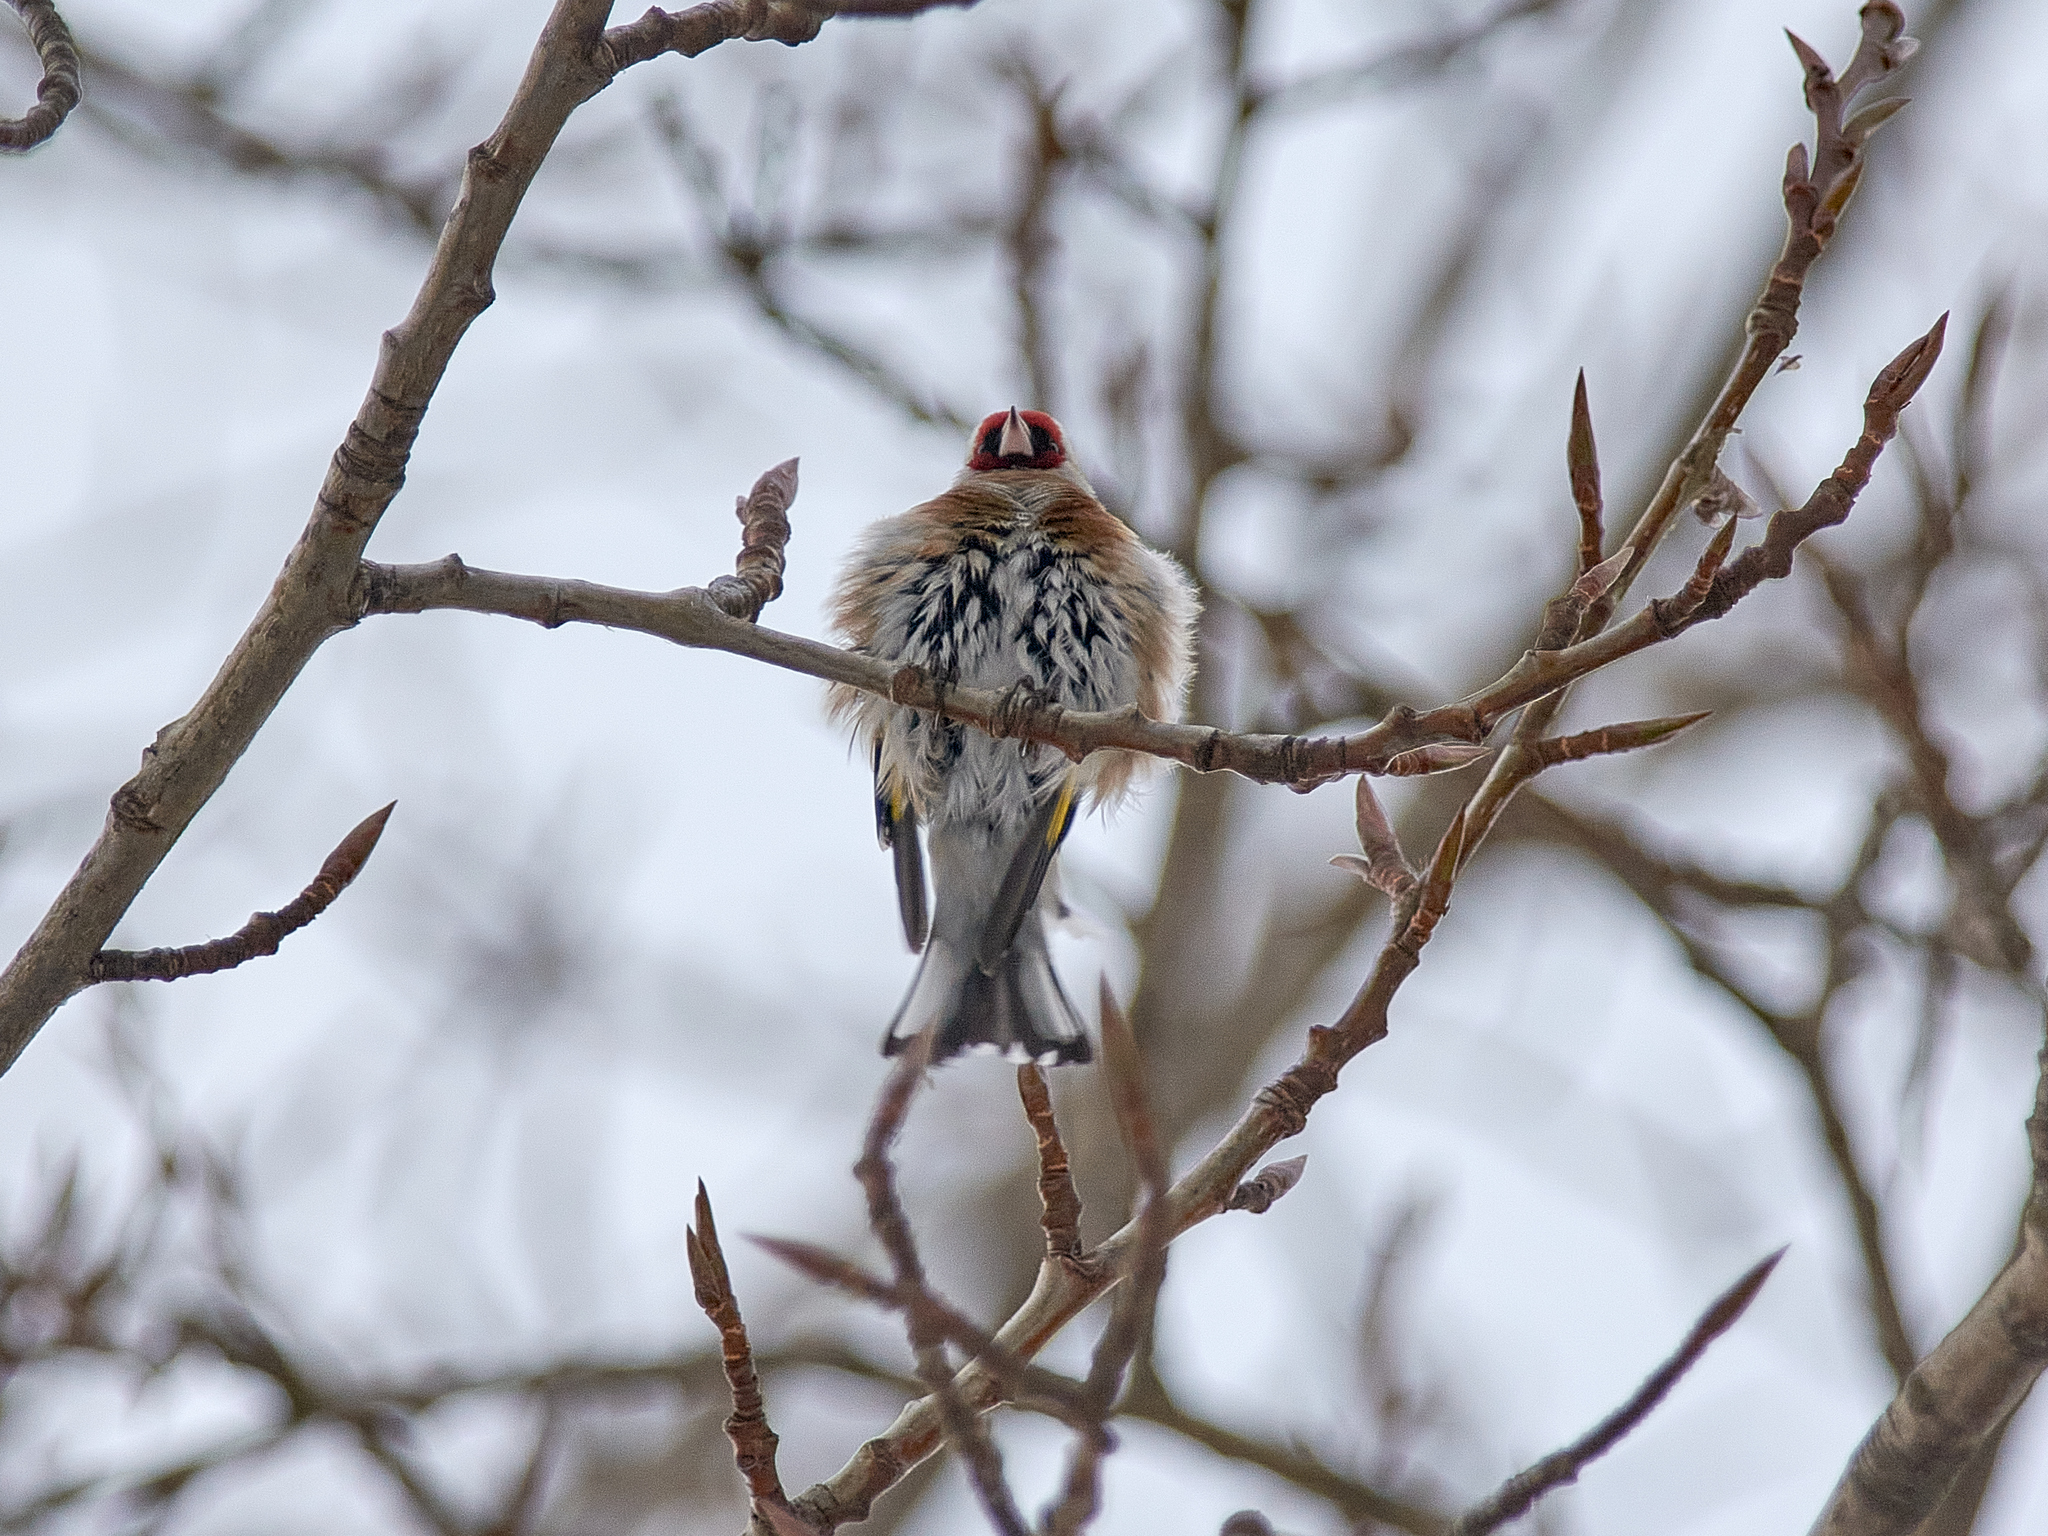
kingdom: Animalia
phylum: Chordata
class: Aves
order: Passeriformes
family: Fringillidae
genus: Carduelis
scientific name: Carduelis carduelis
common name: European goldfinch
